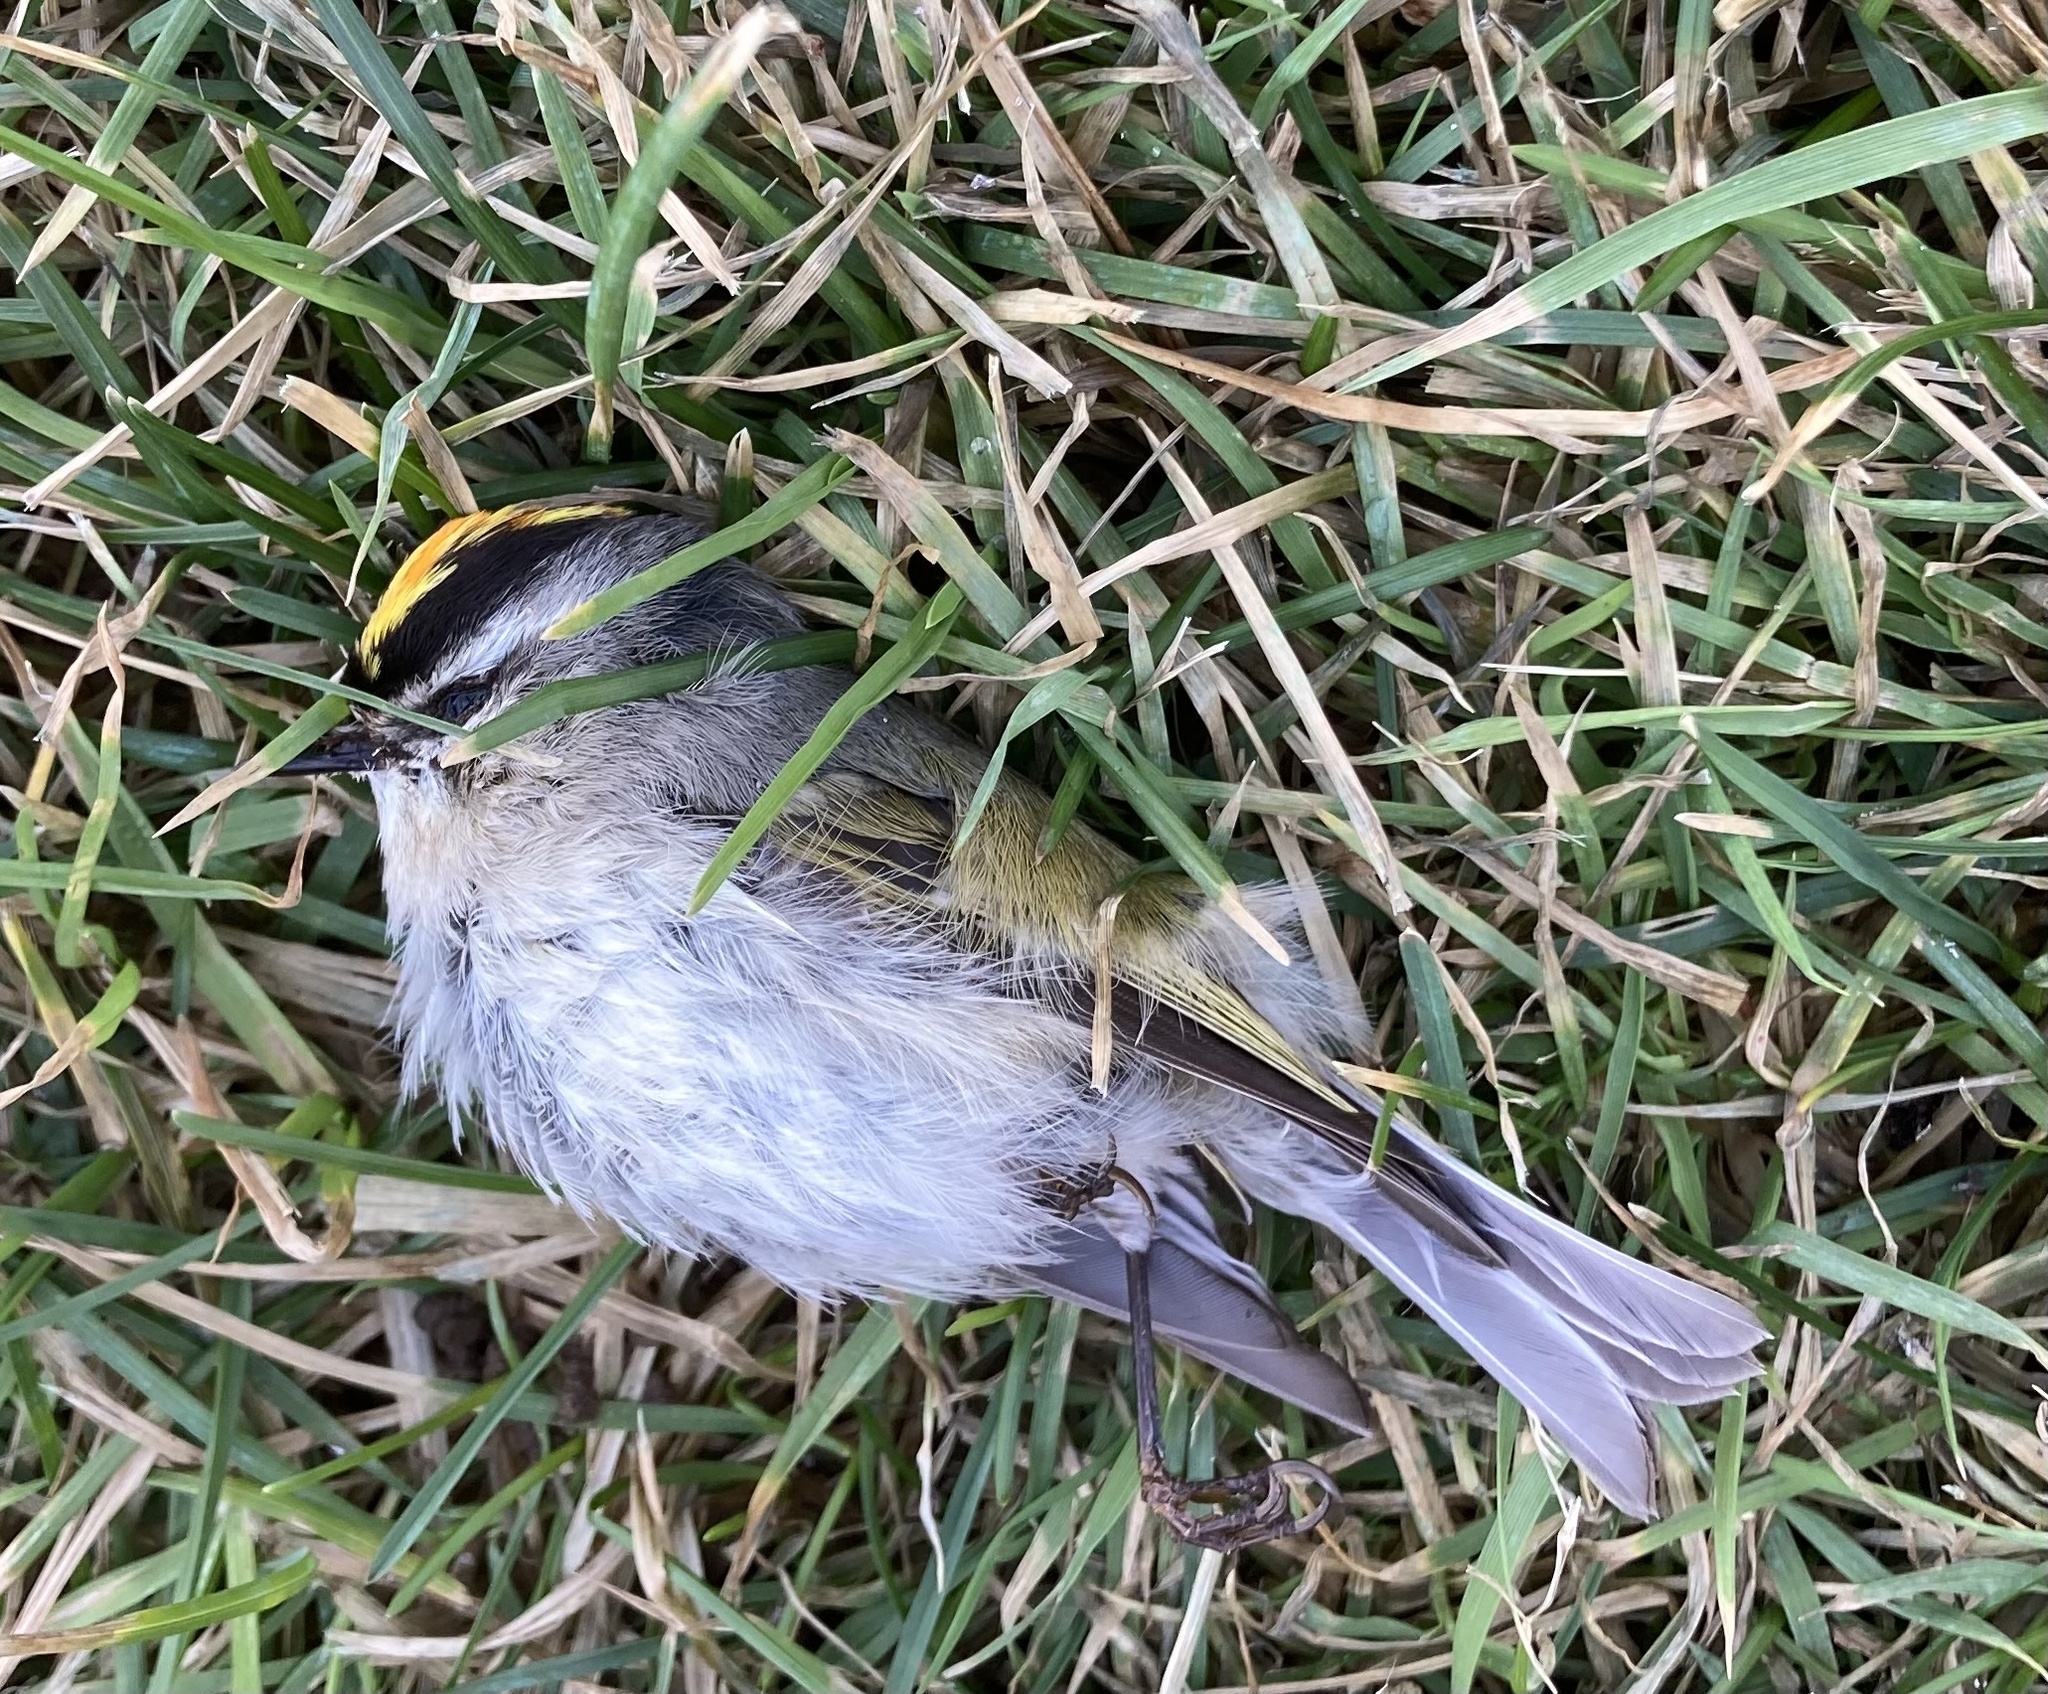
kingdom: Animalia
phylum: Chordata
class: Aves
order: Passeriformes
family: Regulidae
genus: Regulus
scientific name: Regulus satrapa
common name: Golden-crowned kinglet
